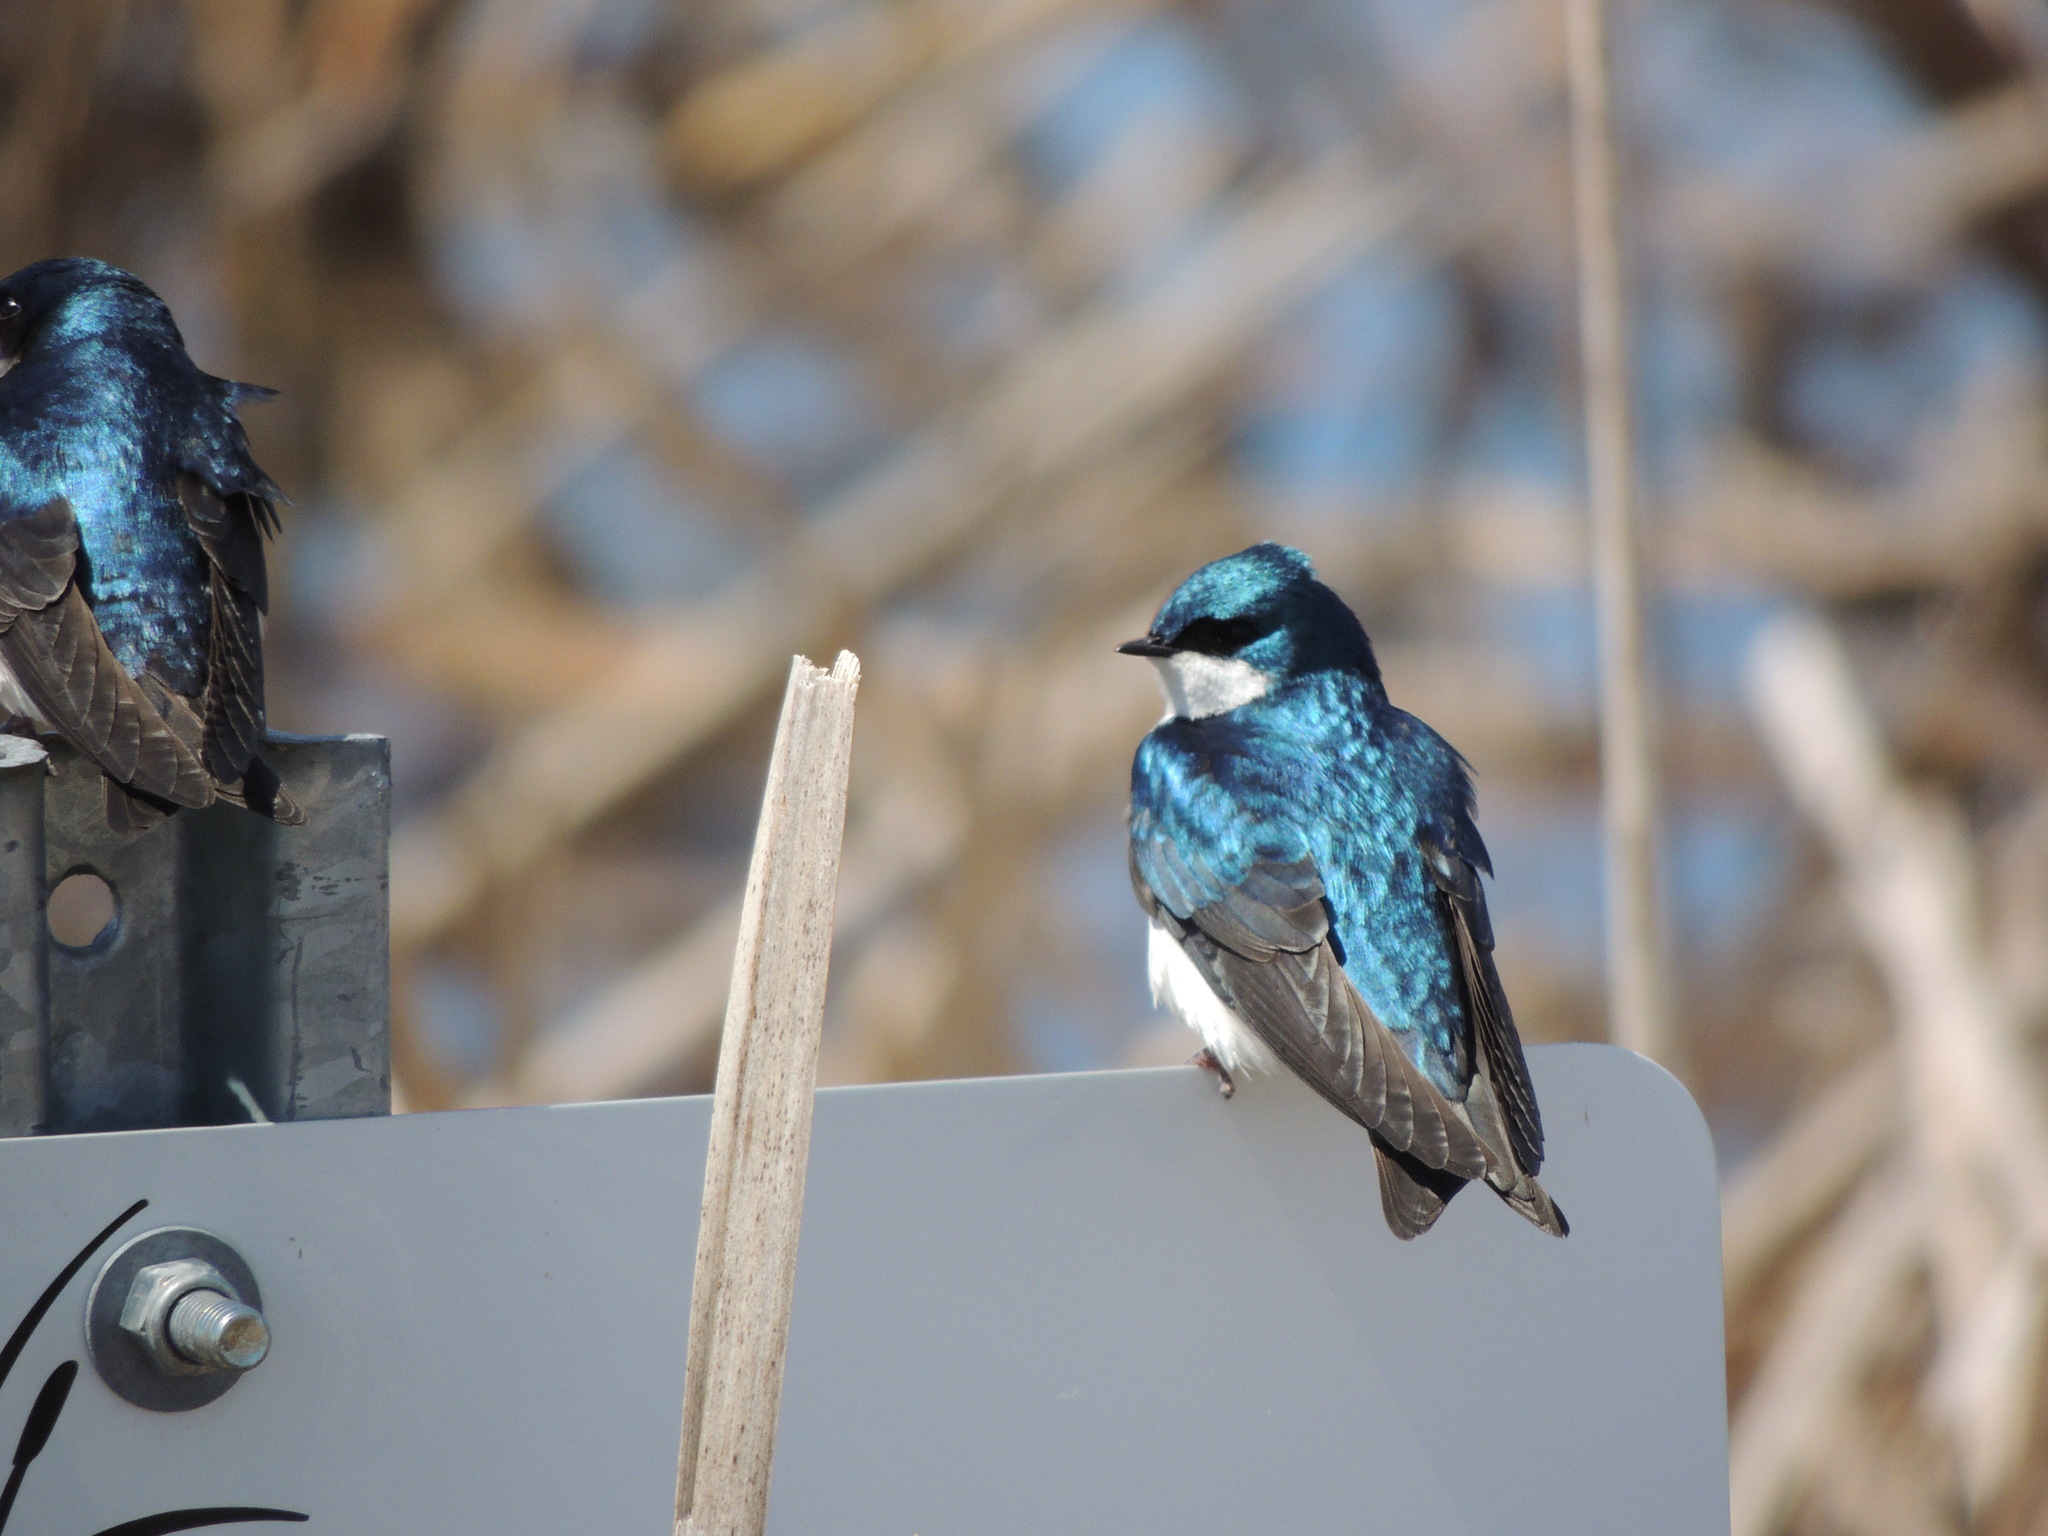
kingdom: Animalia
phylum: Chordata
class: Aves
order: Passeriformes
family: Hirundinidae
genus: Tachycineta
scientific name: Tachycineta bicolor
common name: Tree swallow
